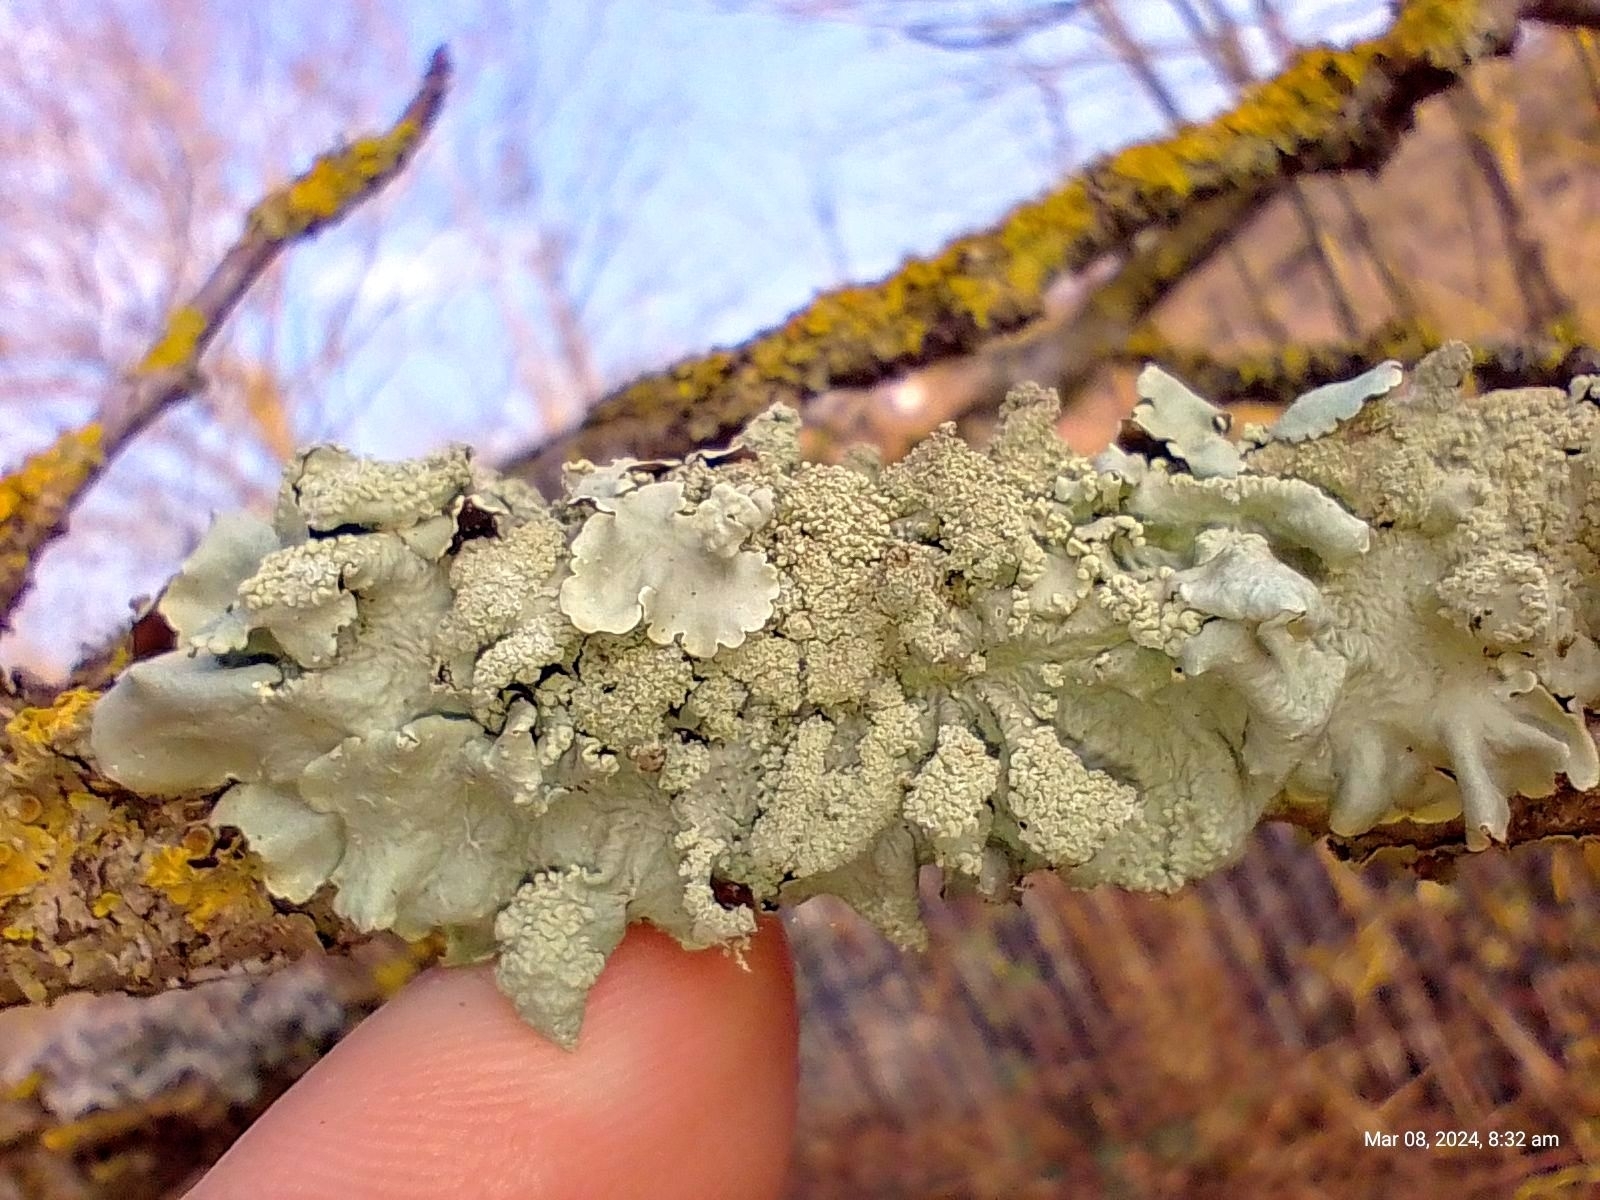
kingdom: Fungi
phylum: Ascomycota
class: Lecanoromycetes
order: Lecanorales
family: Parmeliaceae
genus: Flavoparmelia
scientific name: Flavoparmelia caperata
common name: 40-mile per hour lichen
